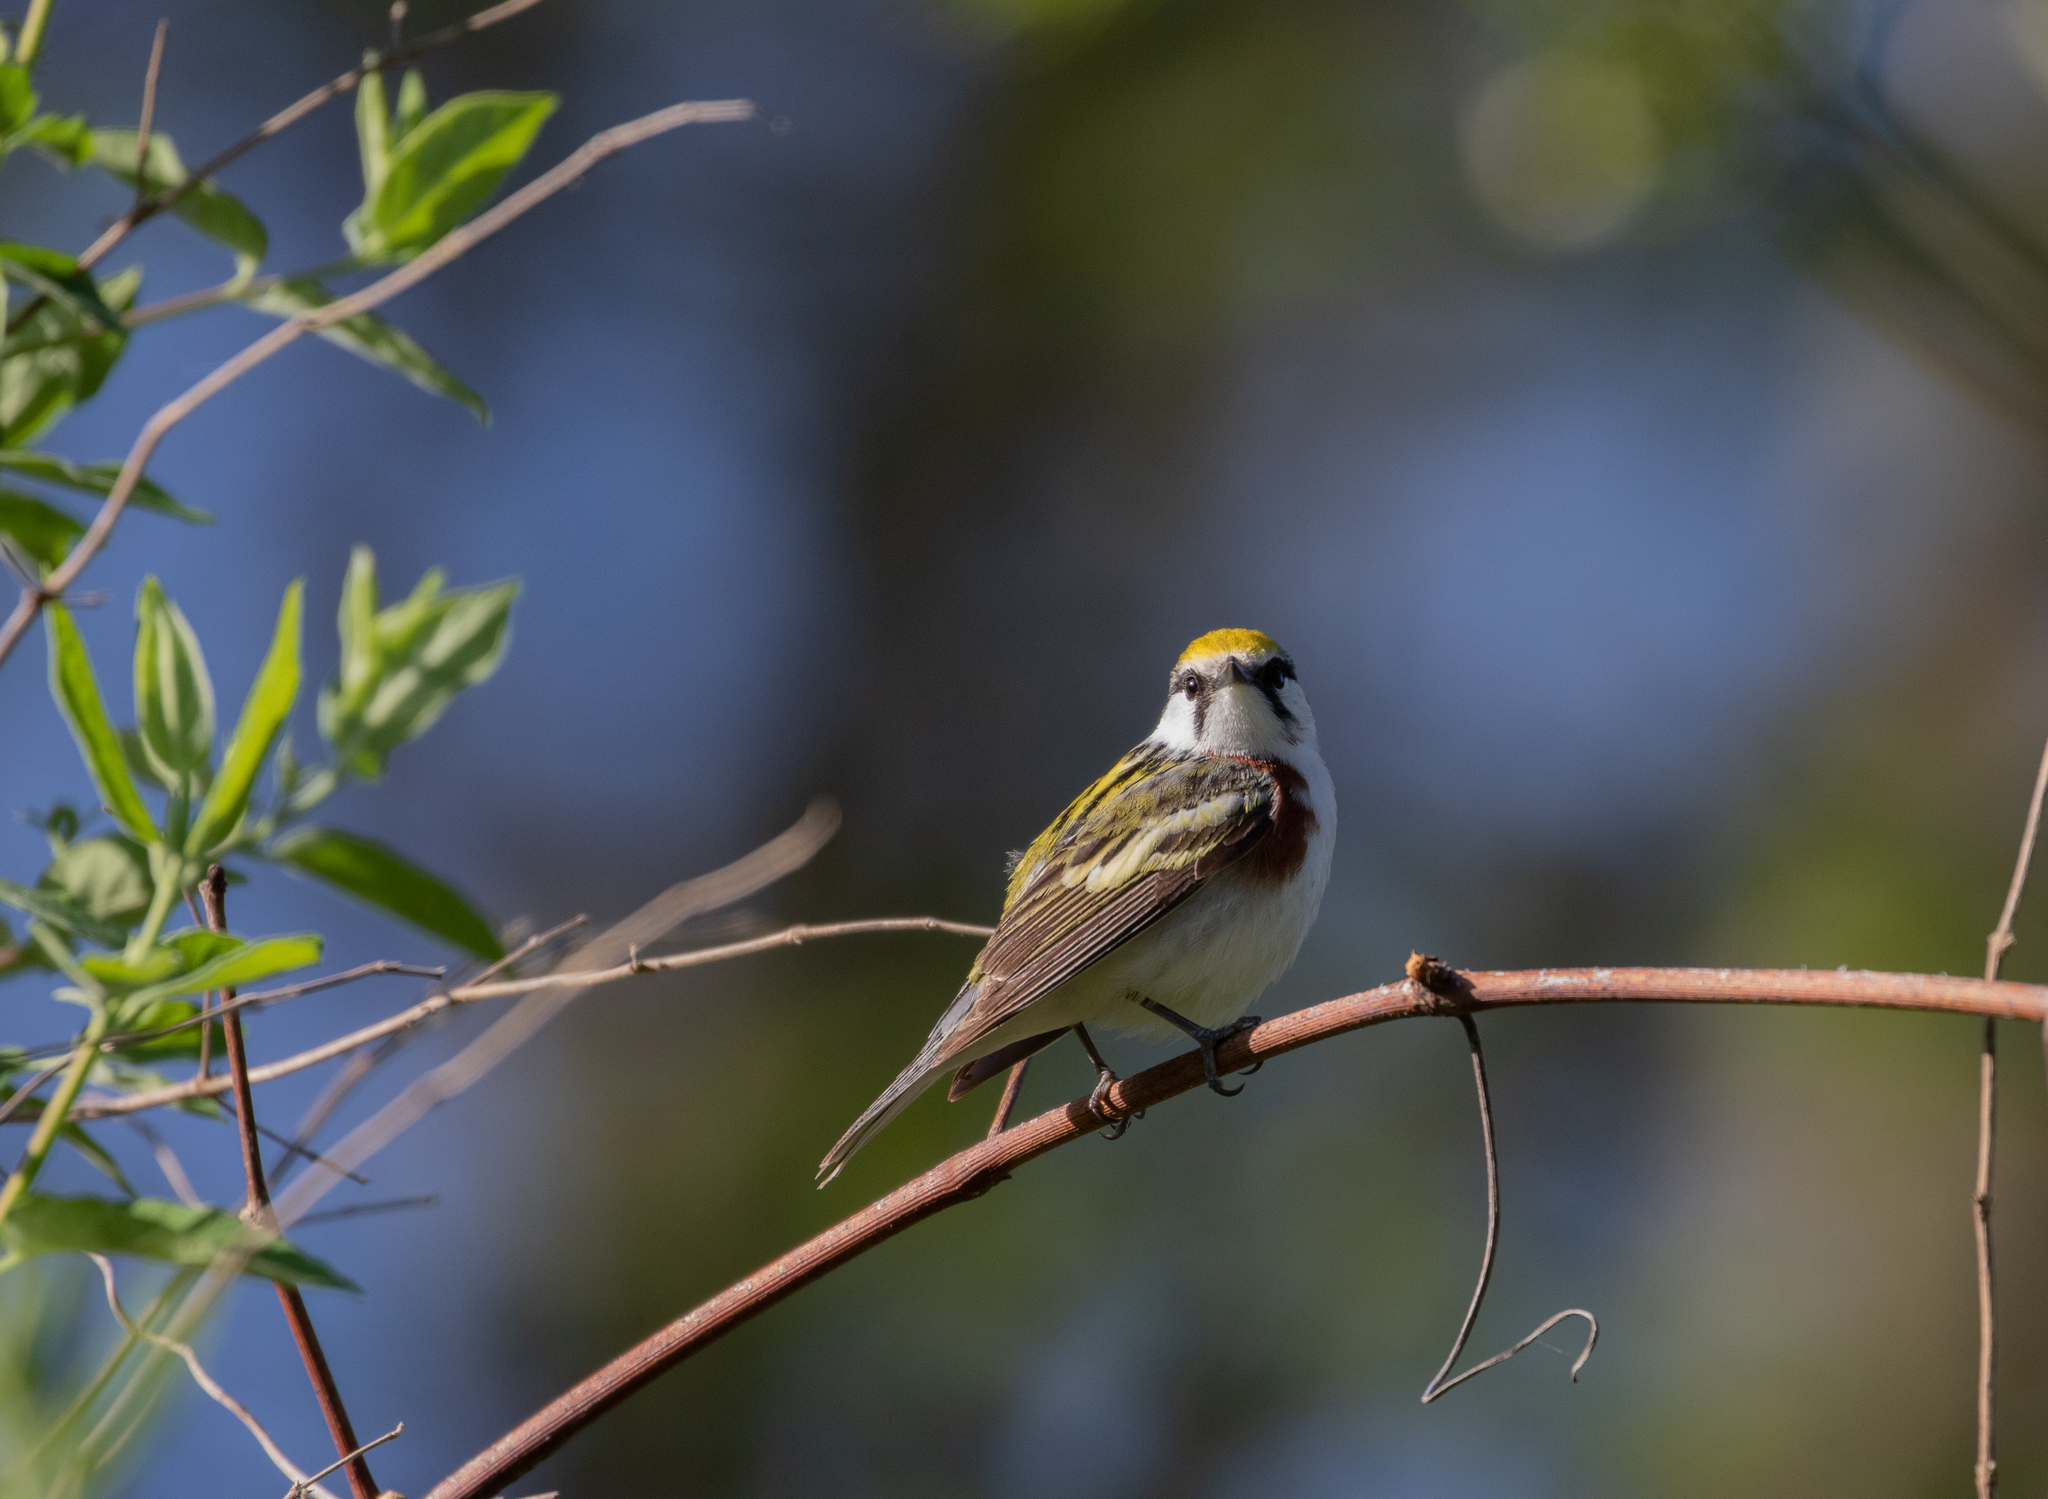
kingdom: Animalia
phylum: Chordata
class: Aves
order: Passeriformes
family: Parulidae
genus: Setophaga
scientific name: Setophaga pensylvanica
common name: Chestnut-sided warbler
